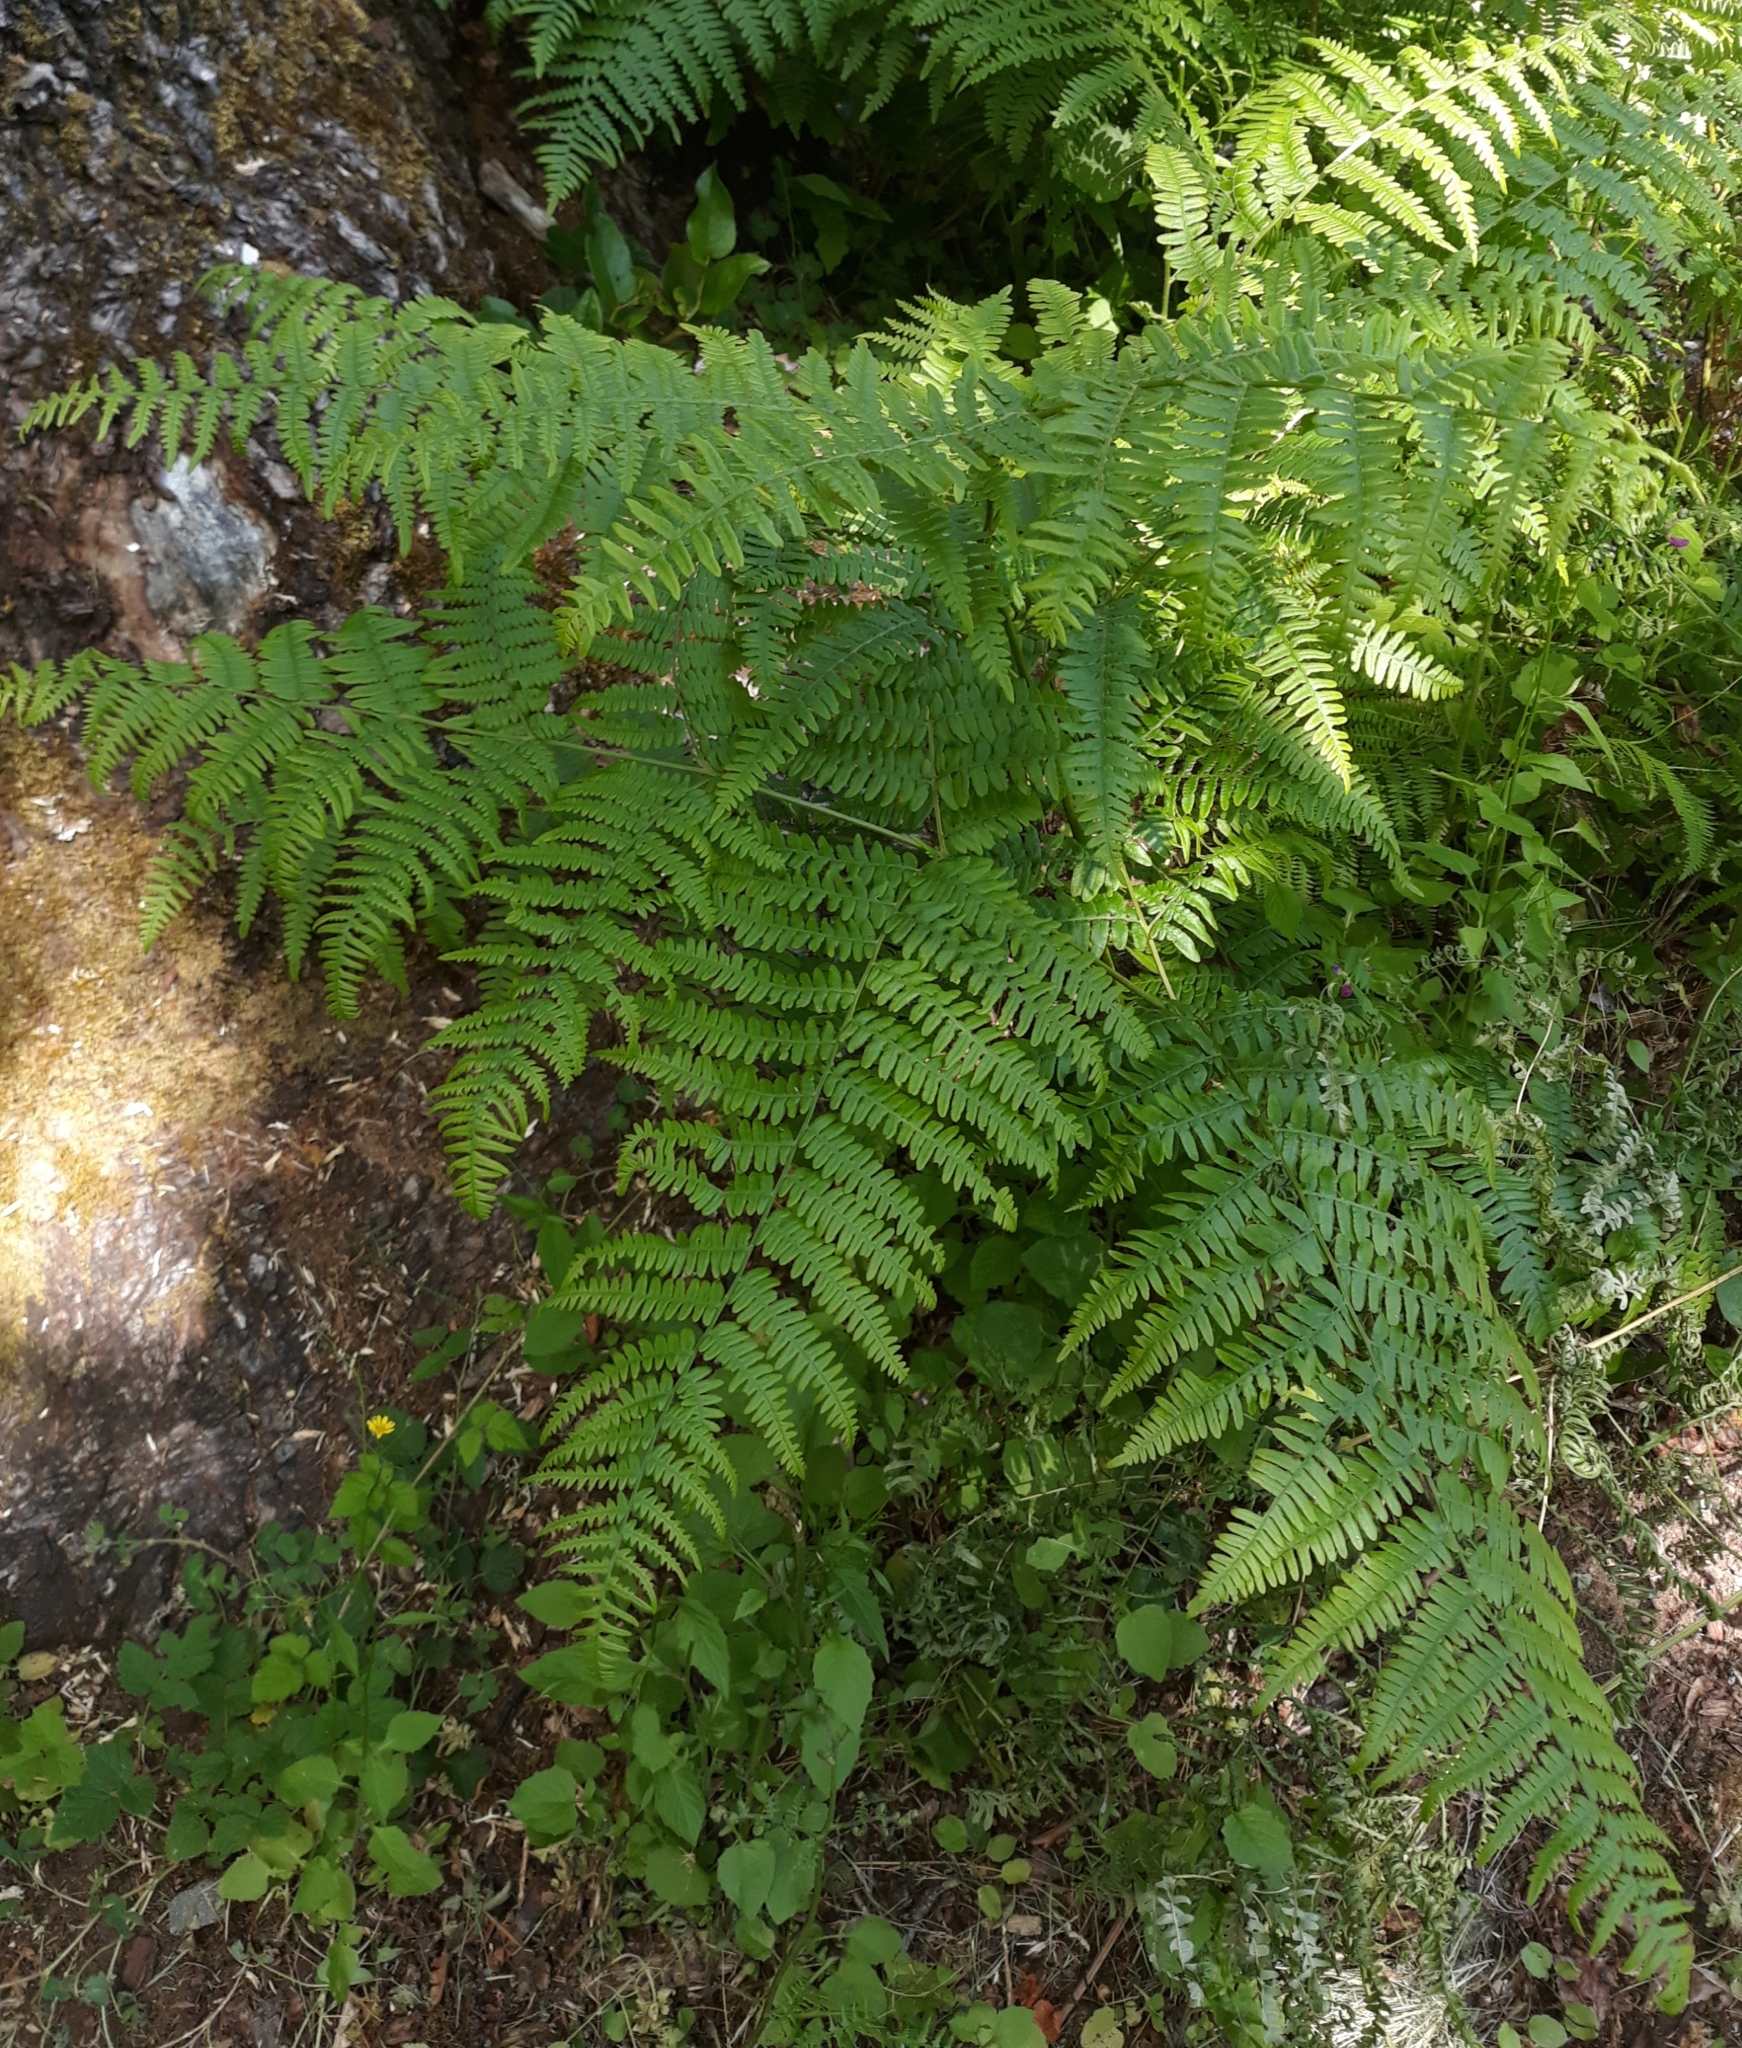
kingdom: Plantae
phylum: Tracheophyta
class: Polypodiopsida
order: Polypodiales
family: Dennstaedtiaceae
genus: Pteridium
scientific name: Pteridium aquilinum
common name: Bracken
